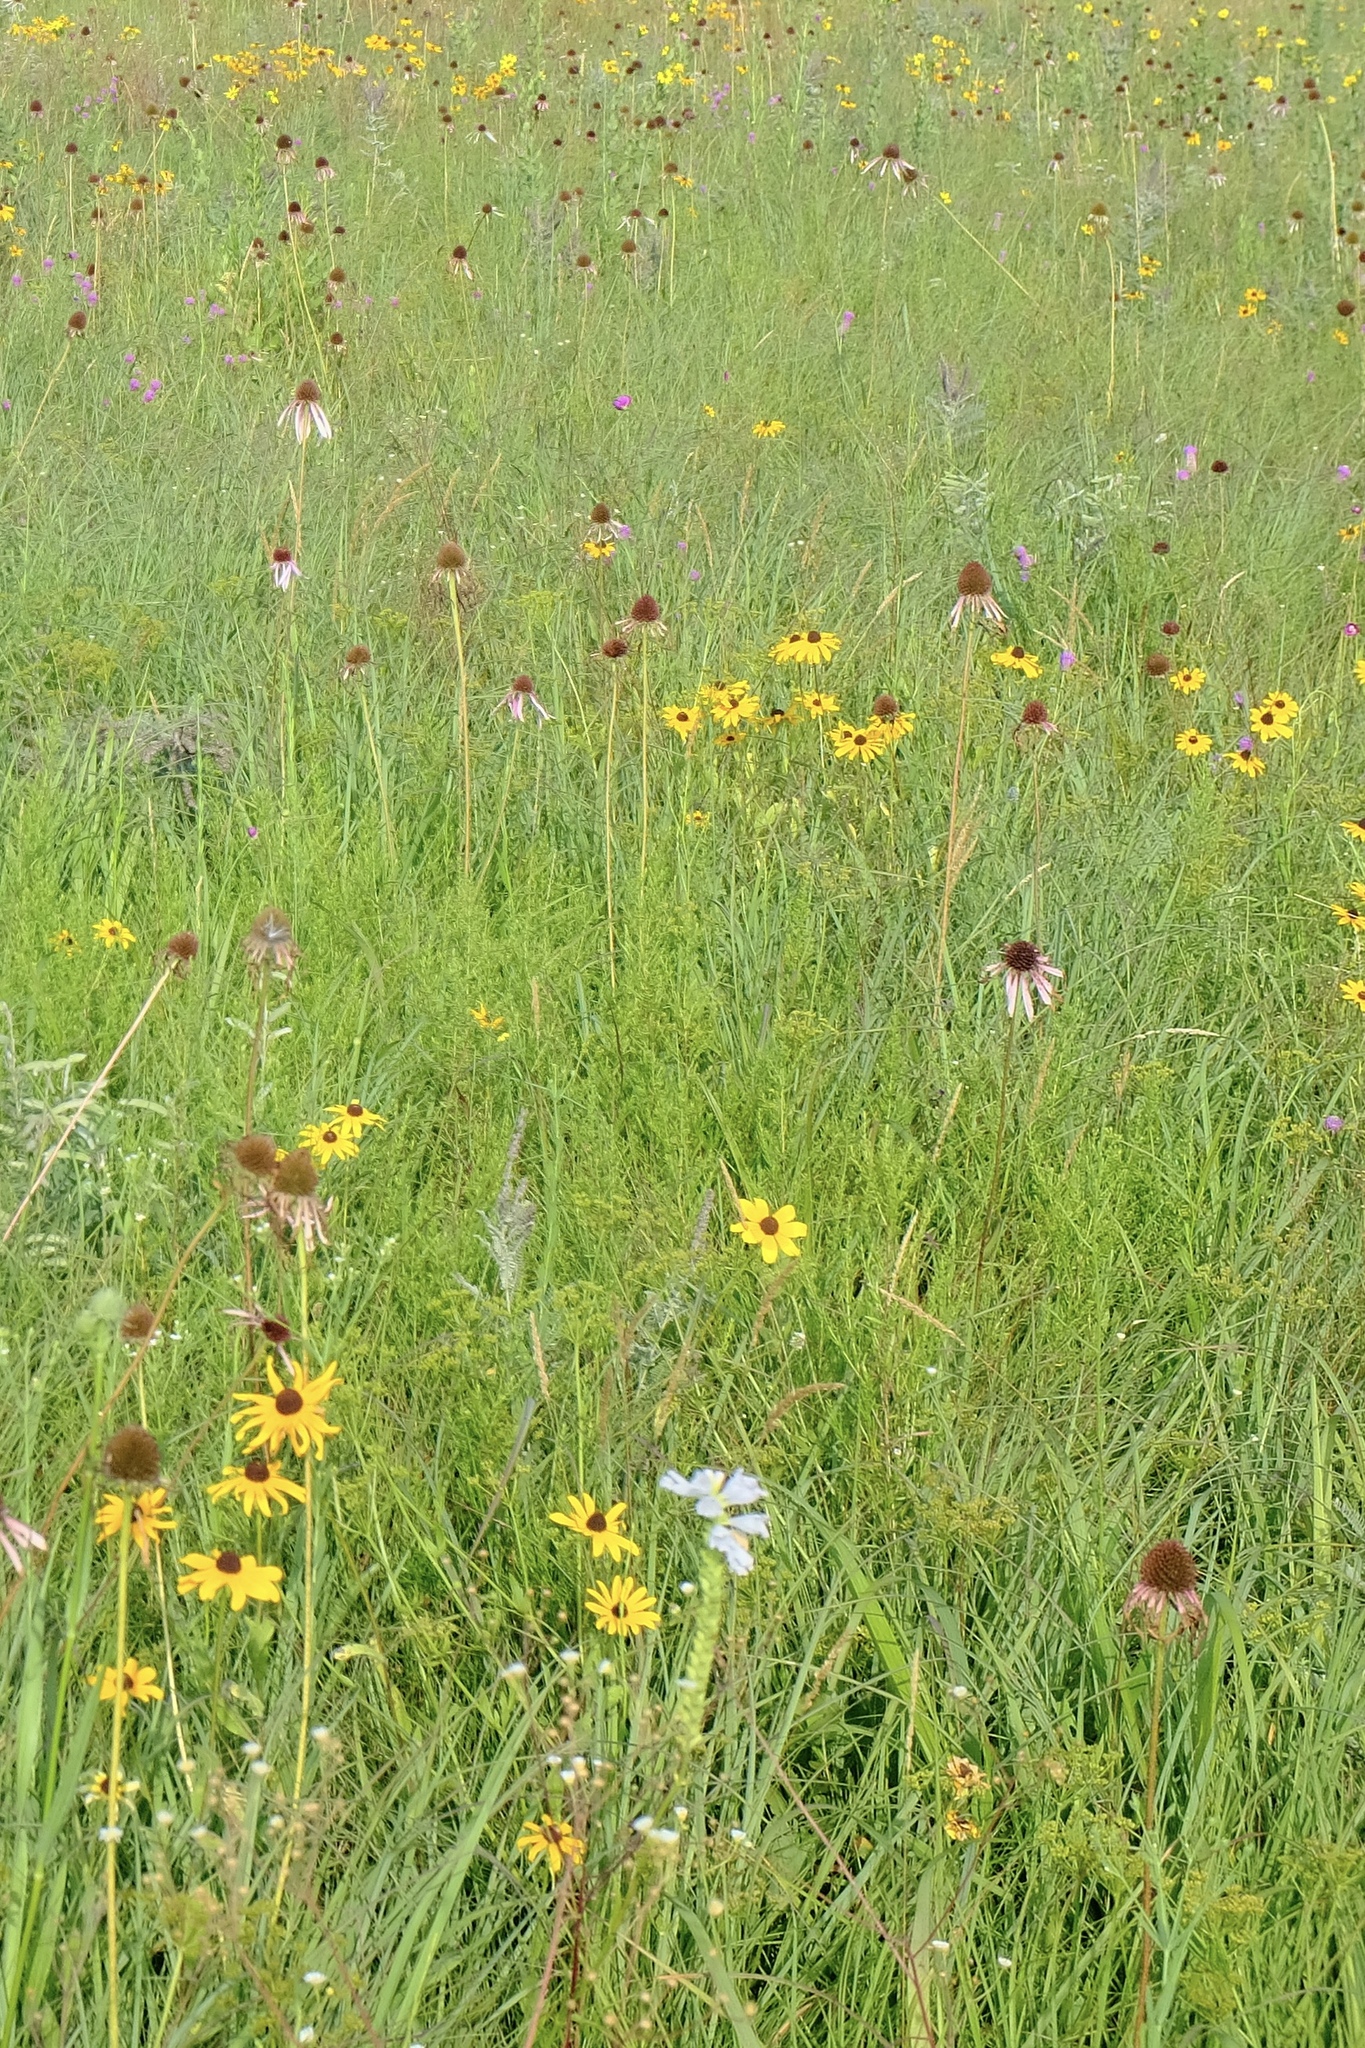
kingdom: Plantae
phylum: Tracheophyta
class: Liliopsida
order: Poales
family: Poaceae
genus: Koeleria
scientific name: Koeleria macrantha
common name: Crested hair-grass
